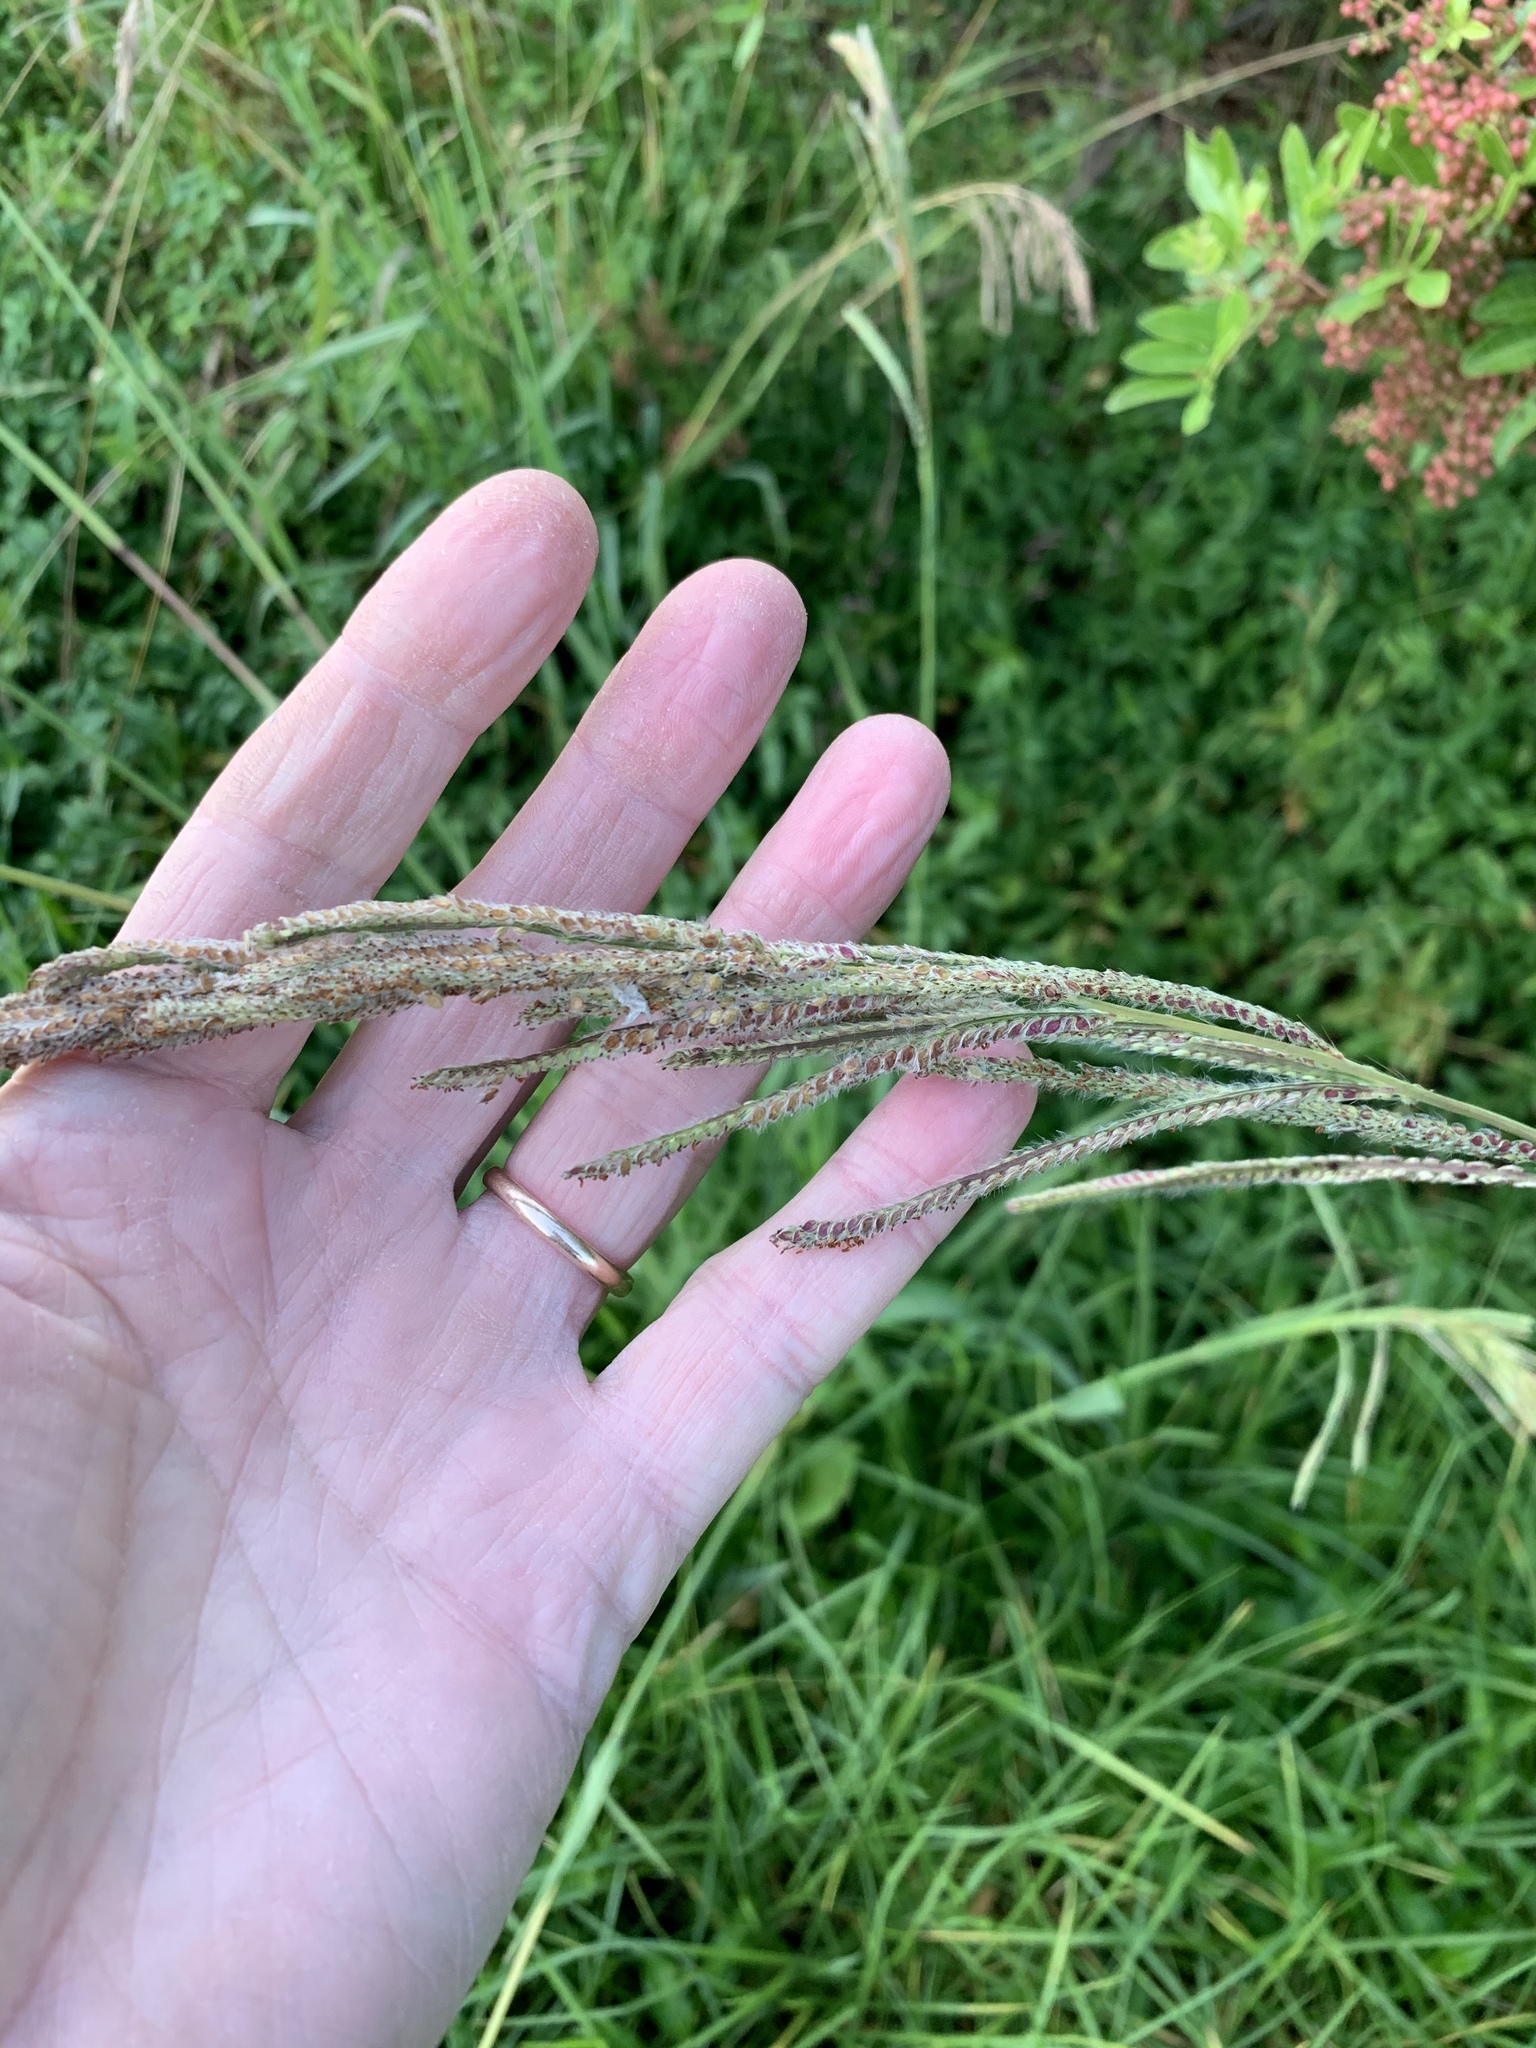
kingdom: Plantae
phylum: Tracheophyta
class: Liliopsida
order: Poales
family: Poaceae
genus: Paspalum
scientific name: Paspalum urvillei
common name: Vasey's grass
